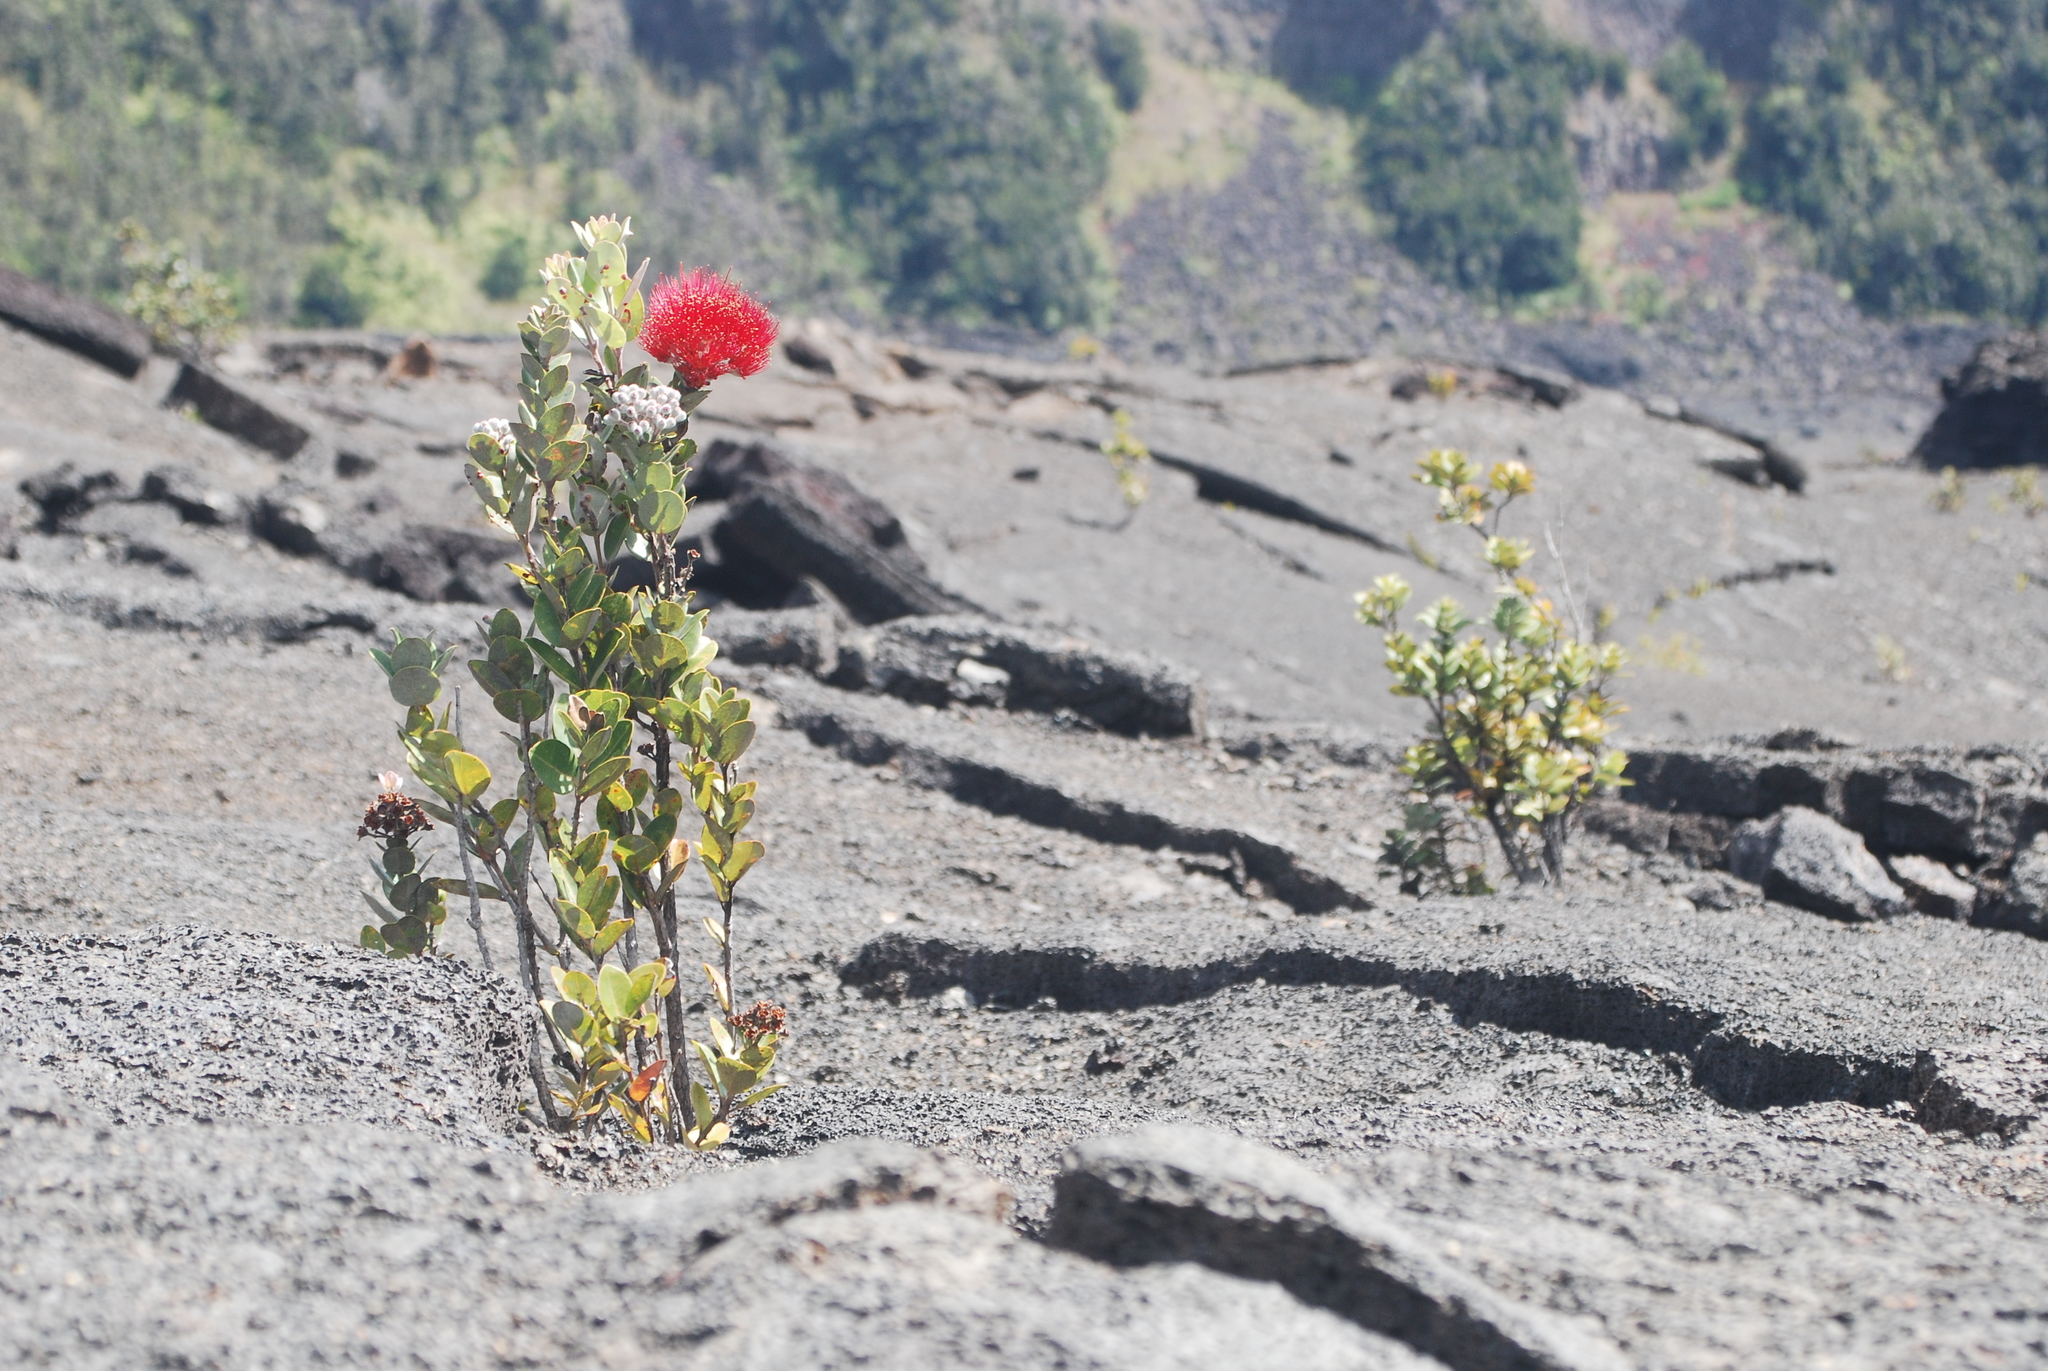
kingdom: Plantae
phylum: Tracheophyta
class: Magnoliopsida
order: Myrtales
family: Myrtaceae
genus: Metrosideros
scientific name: Metrosideros polymorpha
